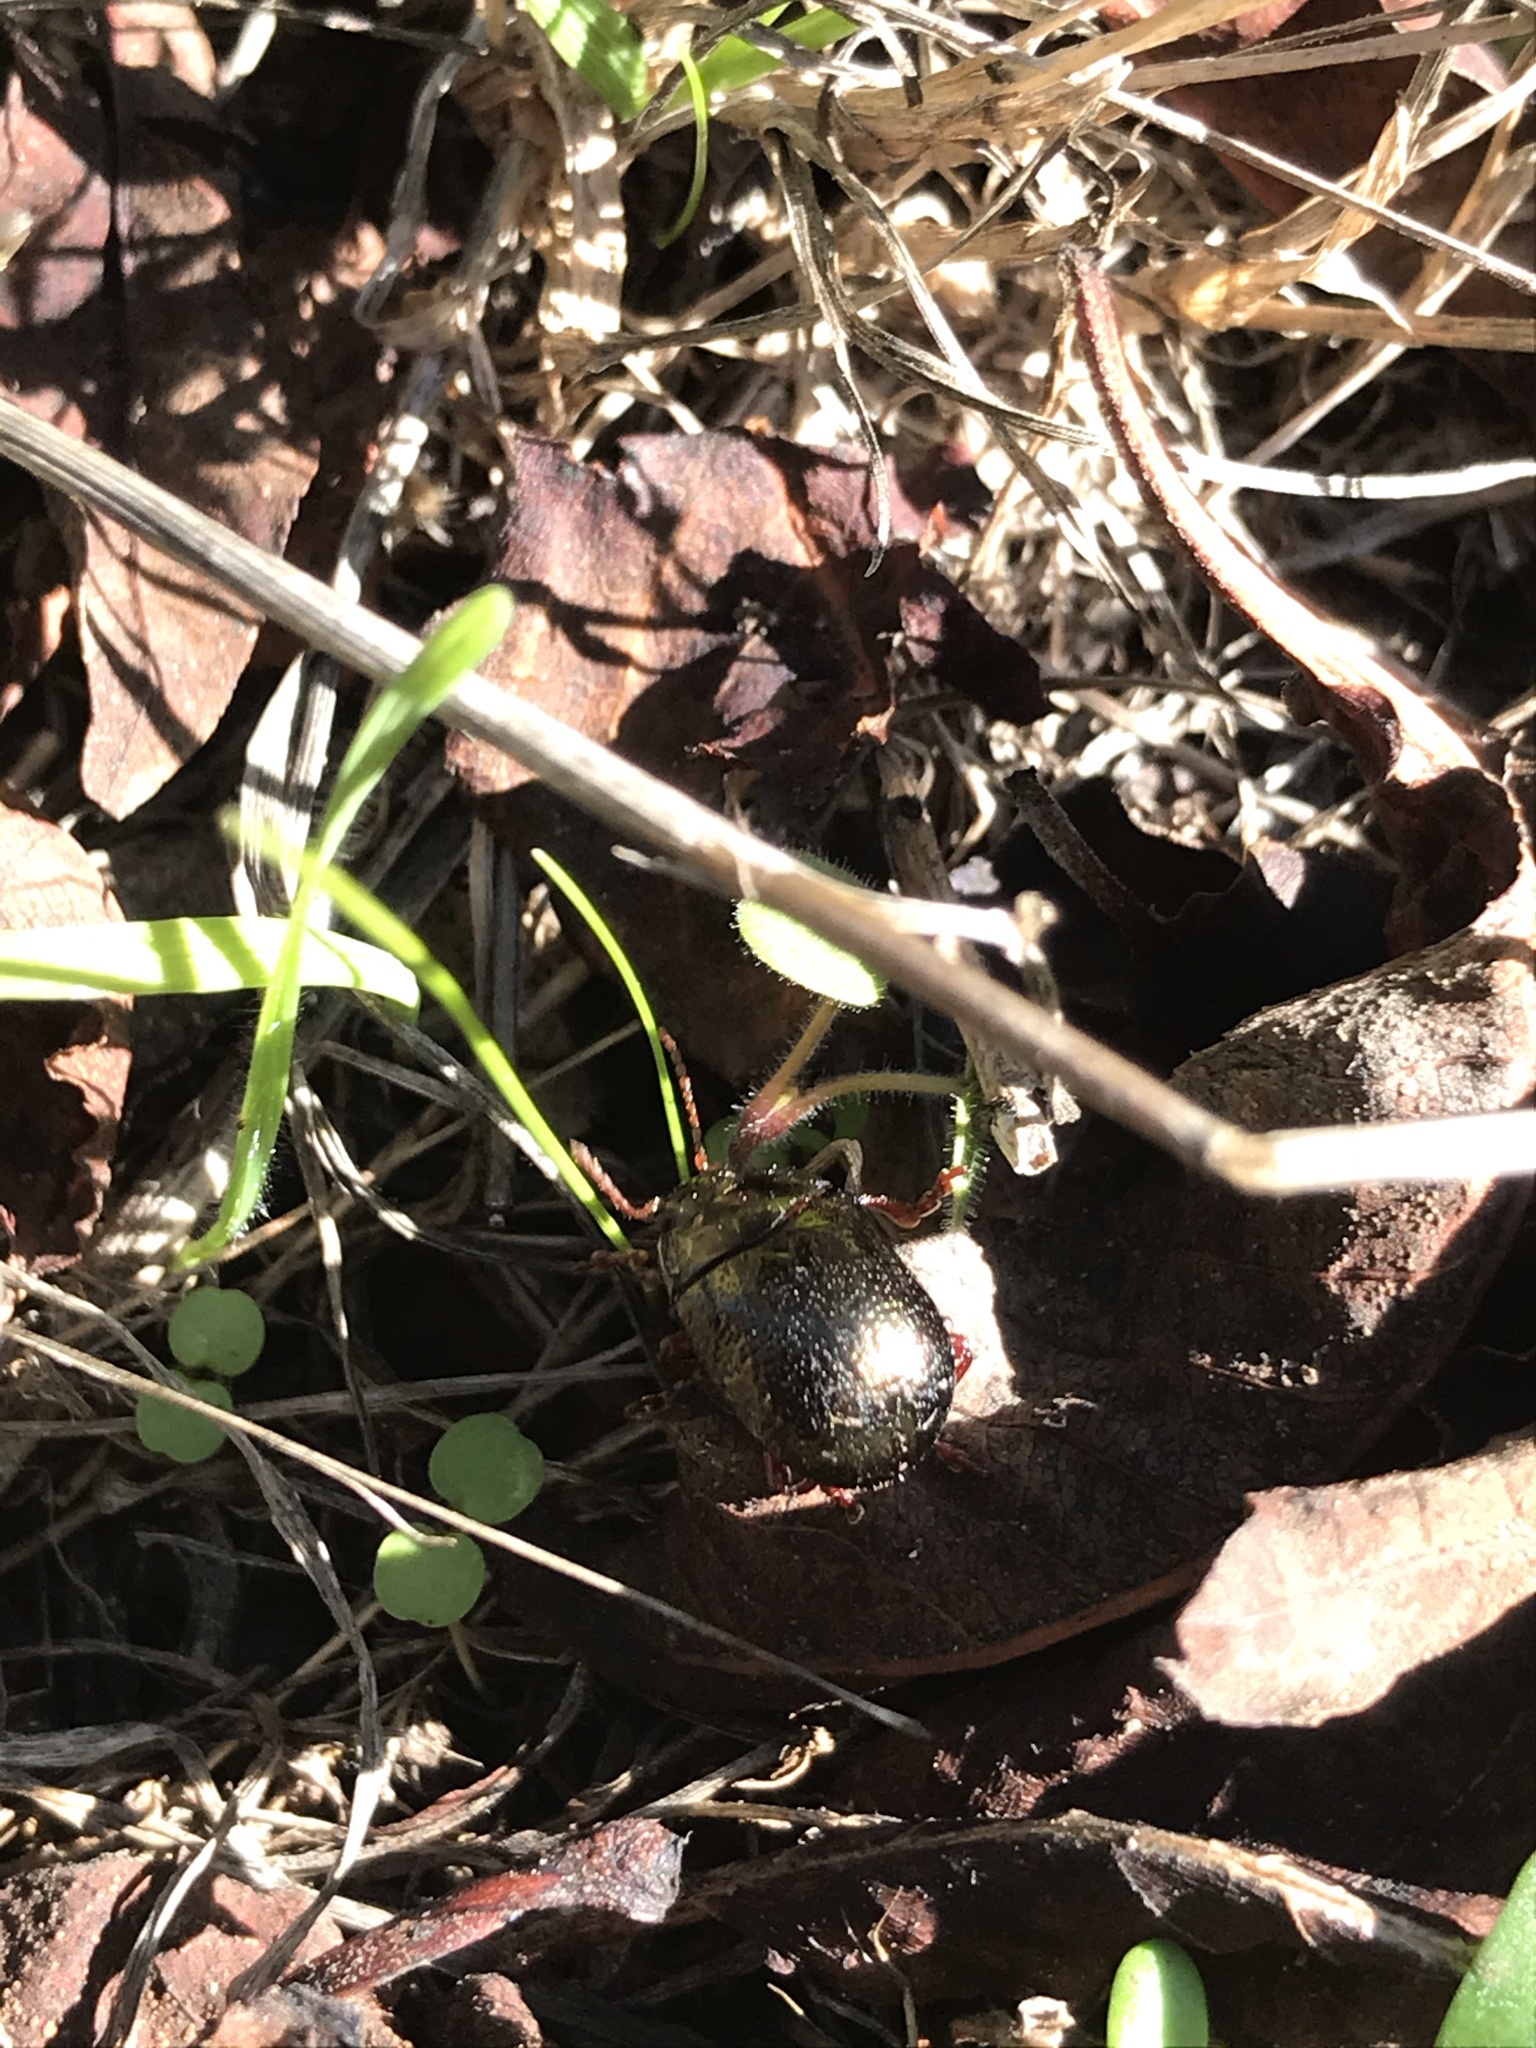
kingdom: Animalia
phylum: Arthropoda
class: Insecta
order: Coleoptera
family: Chrysomelidae
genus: Chrysolina
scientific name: Chrysolina bankii
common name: Leaf beetle
